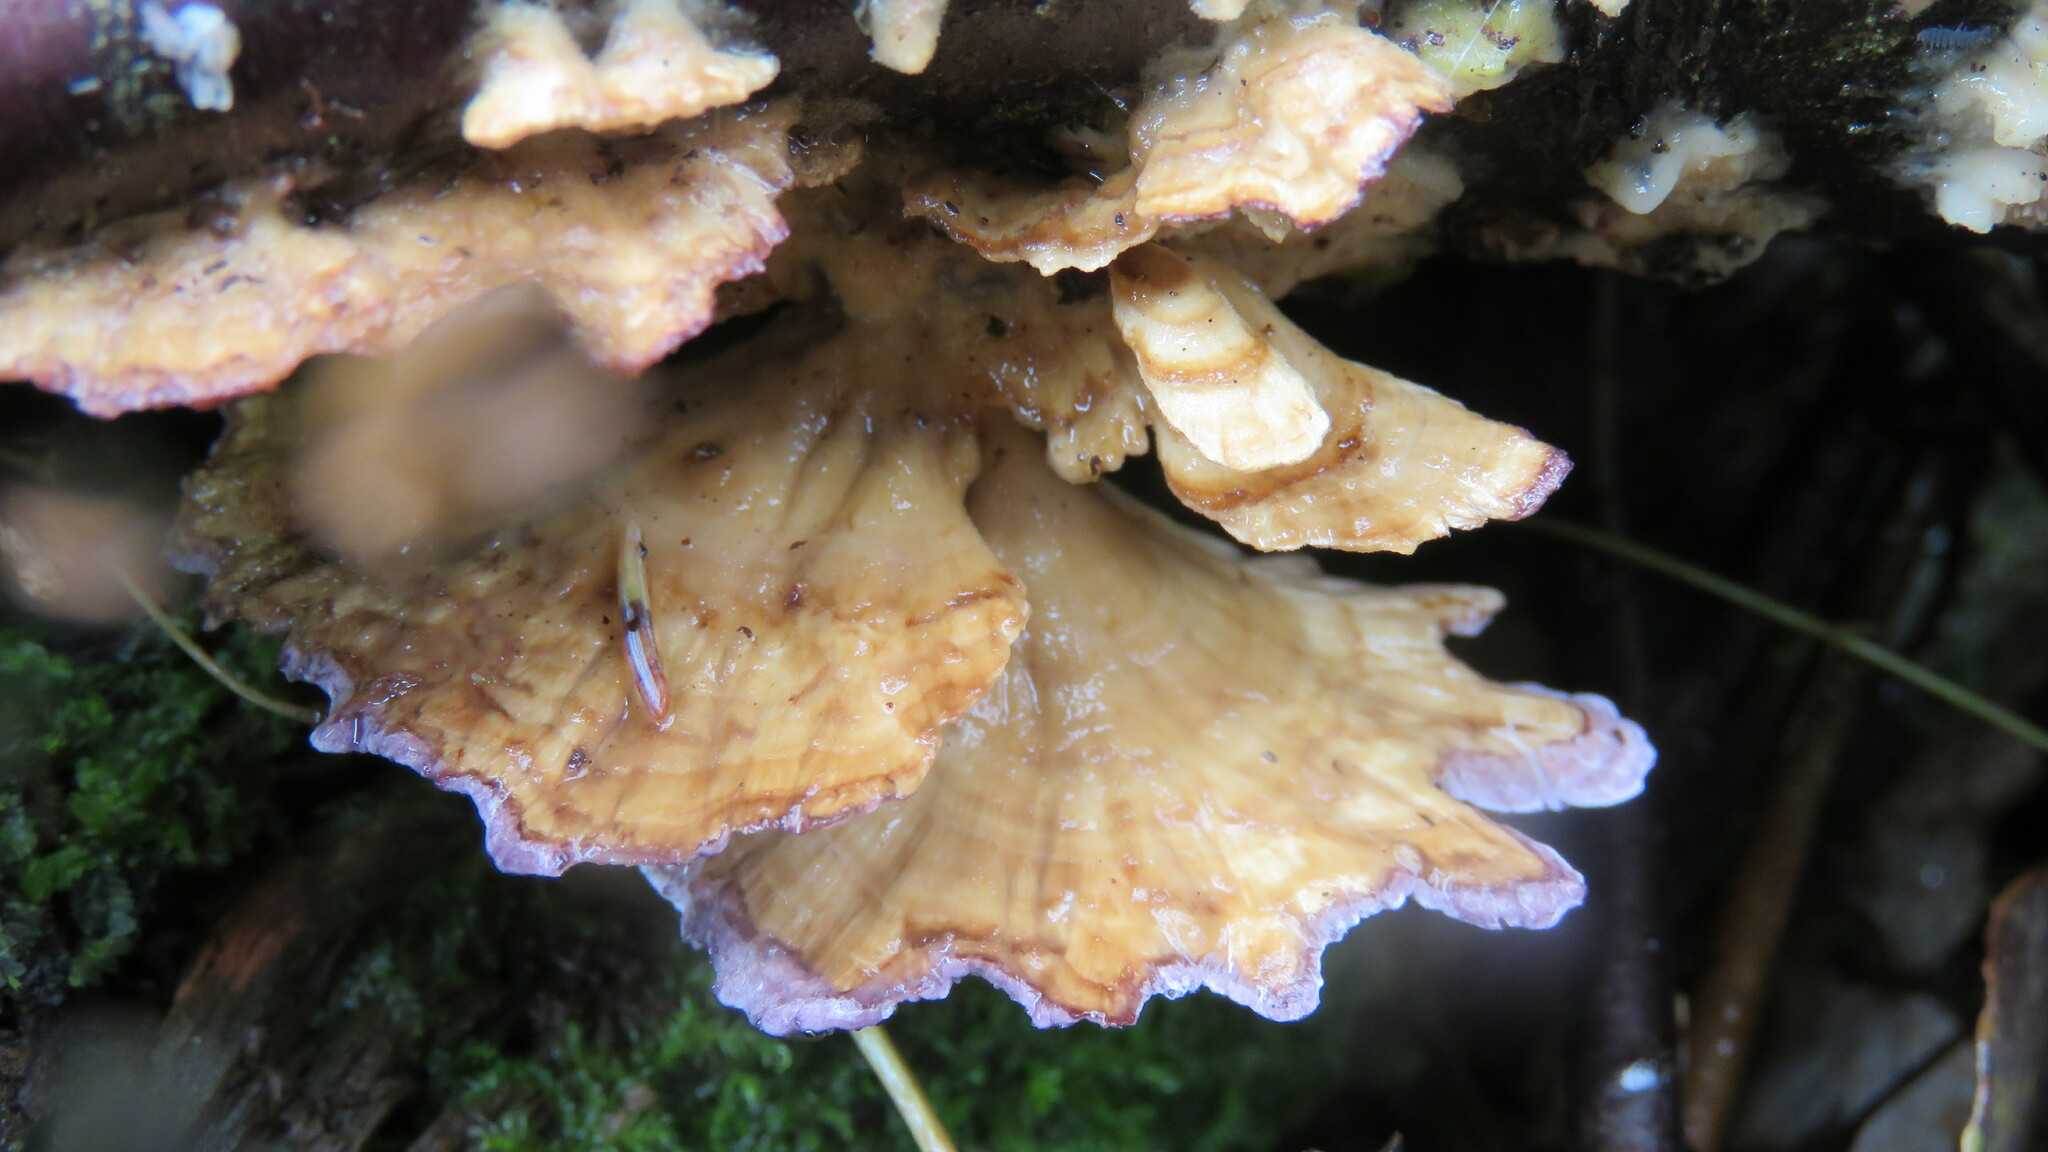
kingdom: Fungi
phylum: Basidiomycota
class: Agaricomycetes
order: Hymenochaetales
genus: Trichaptum
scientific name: Trichaptum biforme
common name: Violet-toothed polypore
